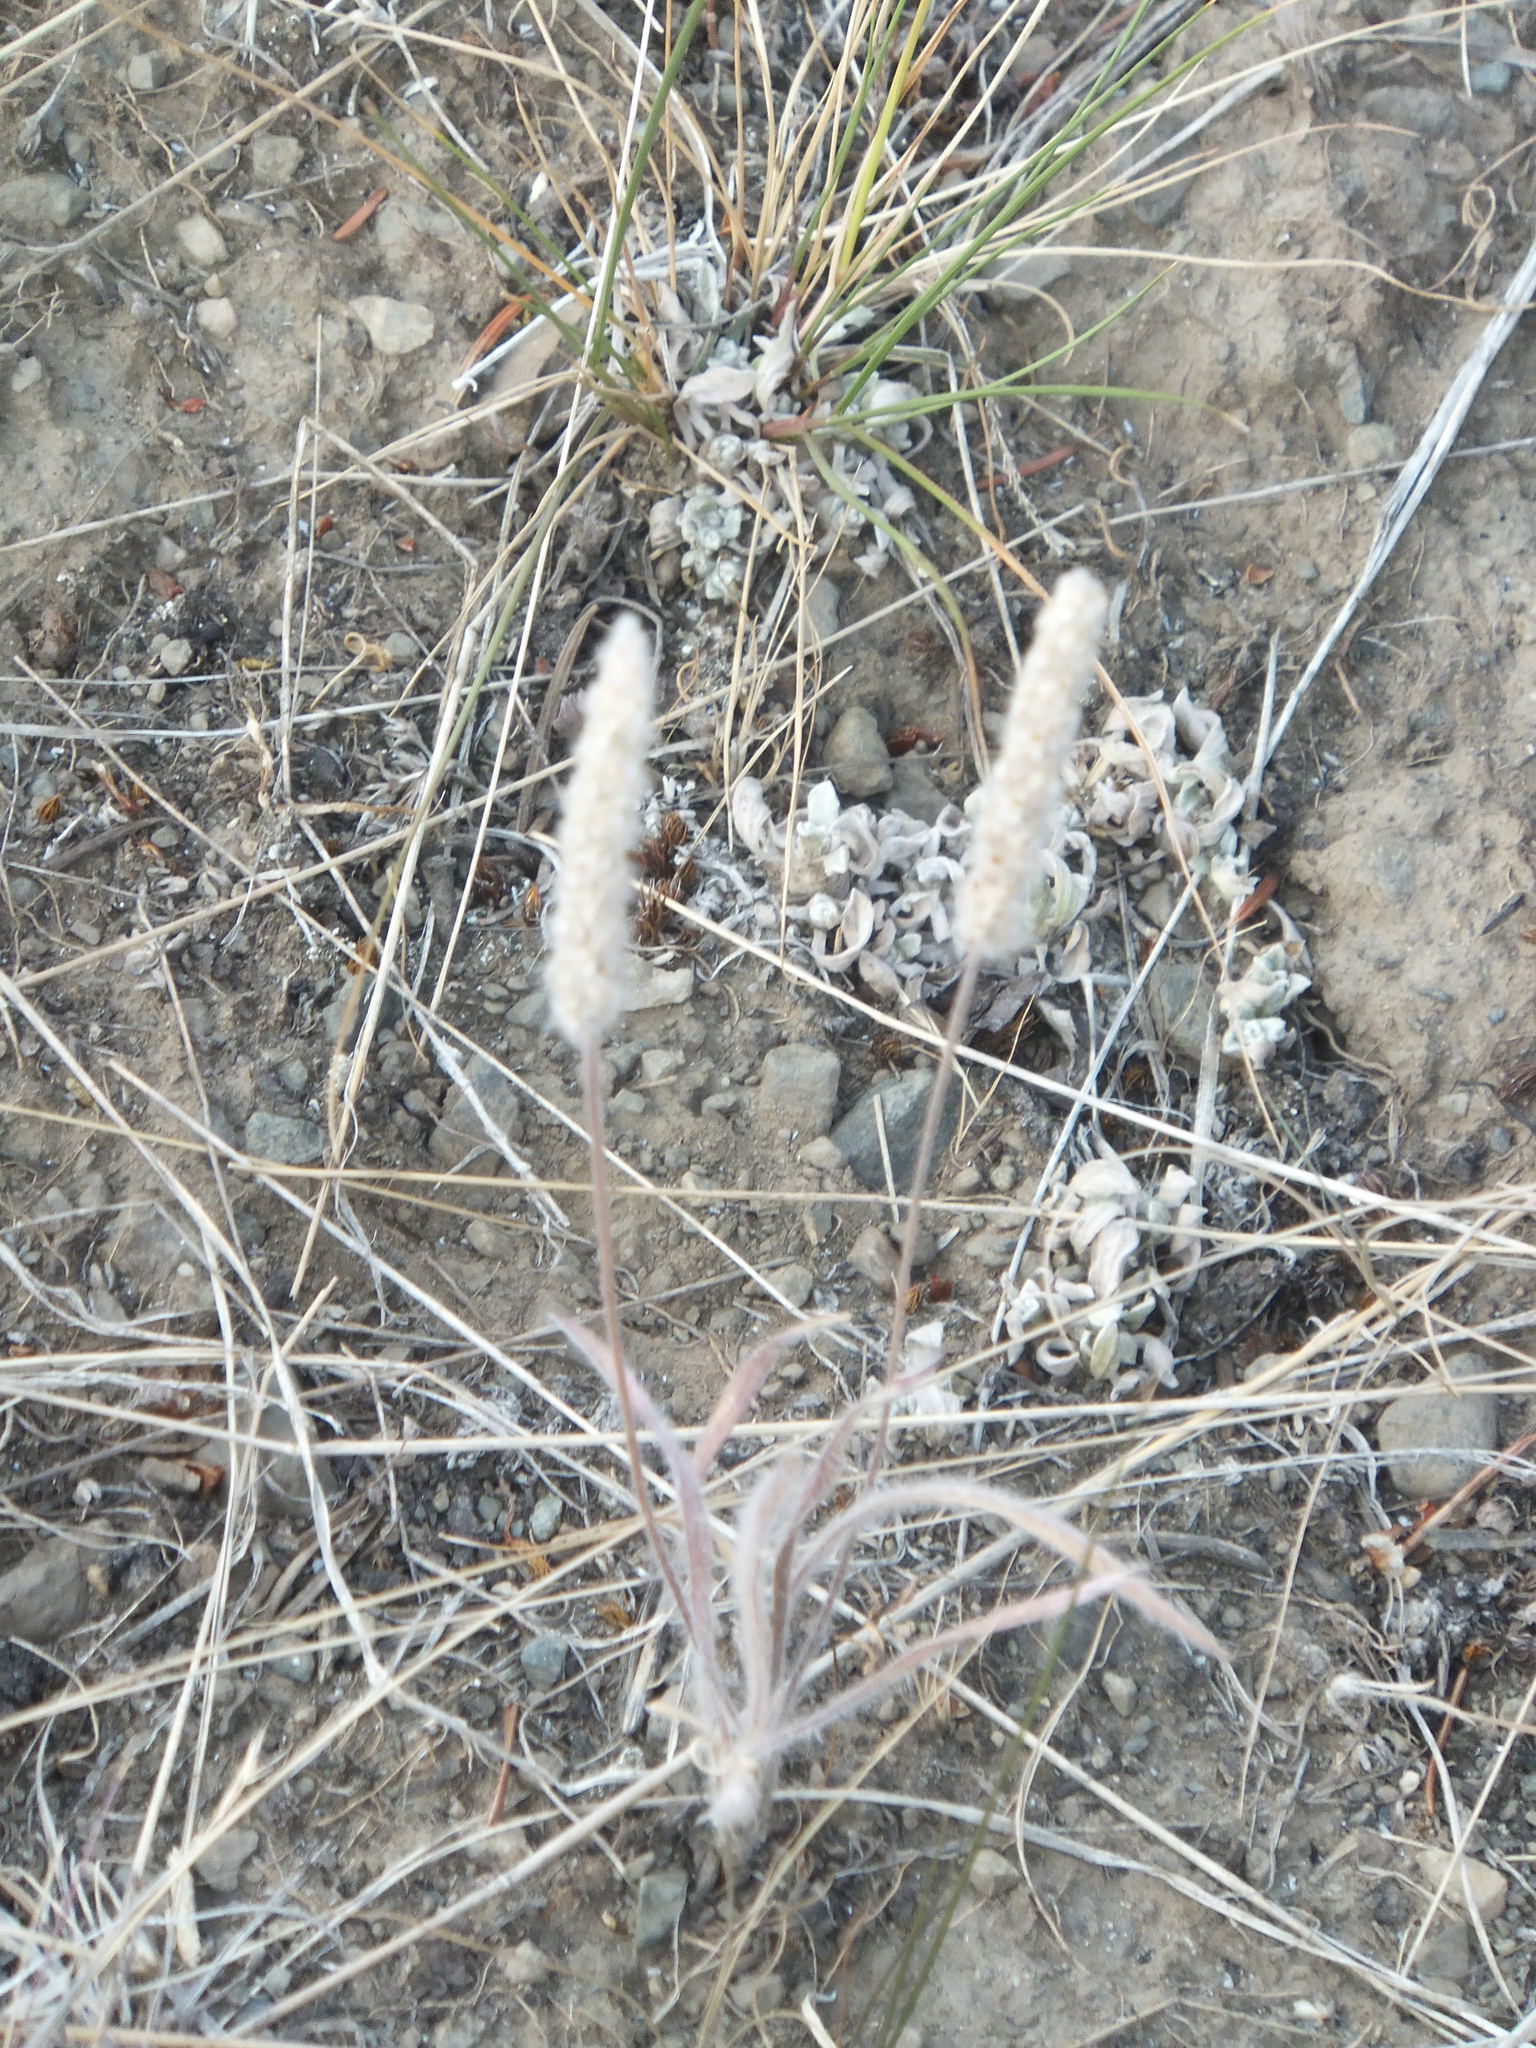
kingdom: Plantae
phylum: Tracheophyta
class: Magnoliopsida
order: Lamiales
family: Plantaginaceae
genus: Plantago
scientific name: Plantago patagonica
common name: Patagonia indian-wheat
